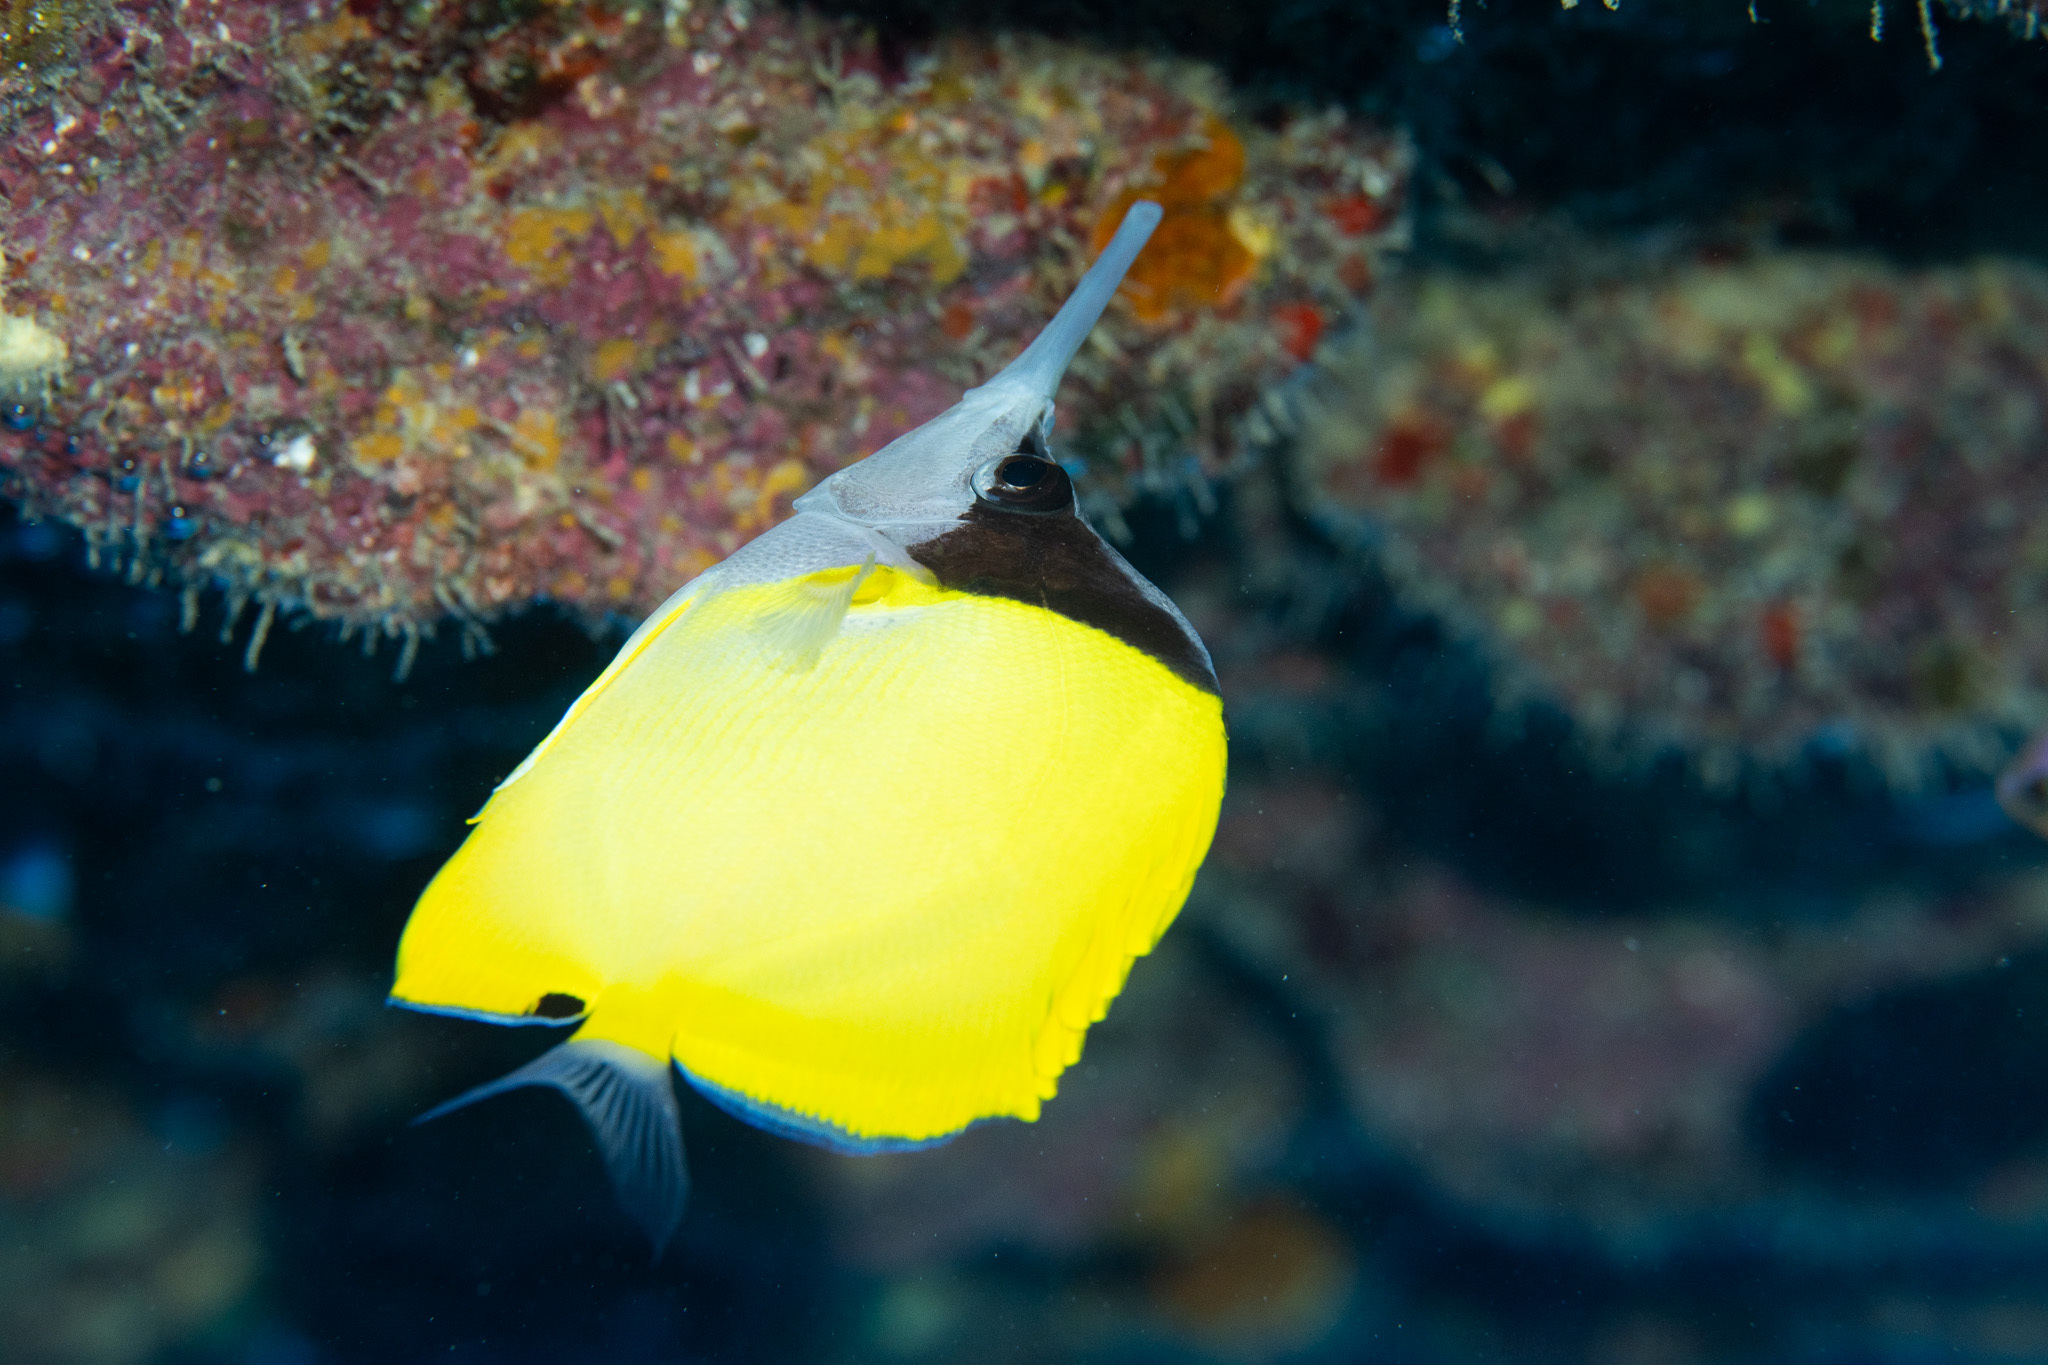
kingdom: Animalia
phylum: Chordata
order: Perciformes
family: Chaetodontidae
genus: Forcipiger
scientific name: Forcipiger longirostris
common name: Longnose butterflyfish
